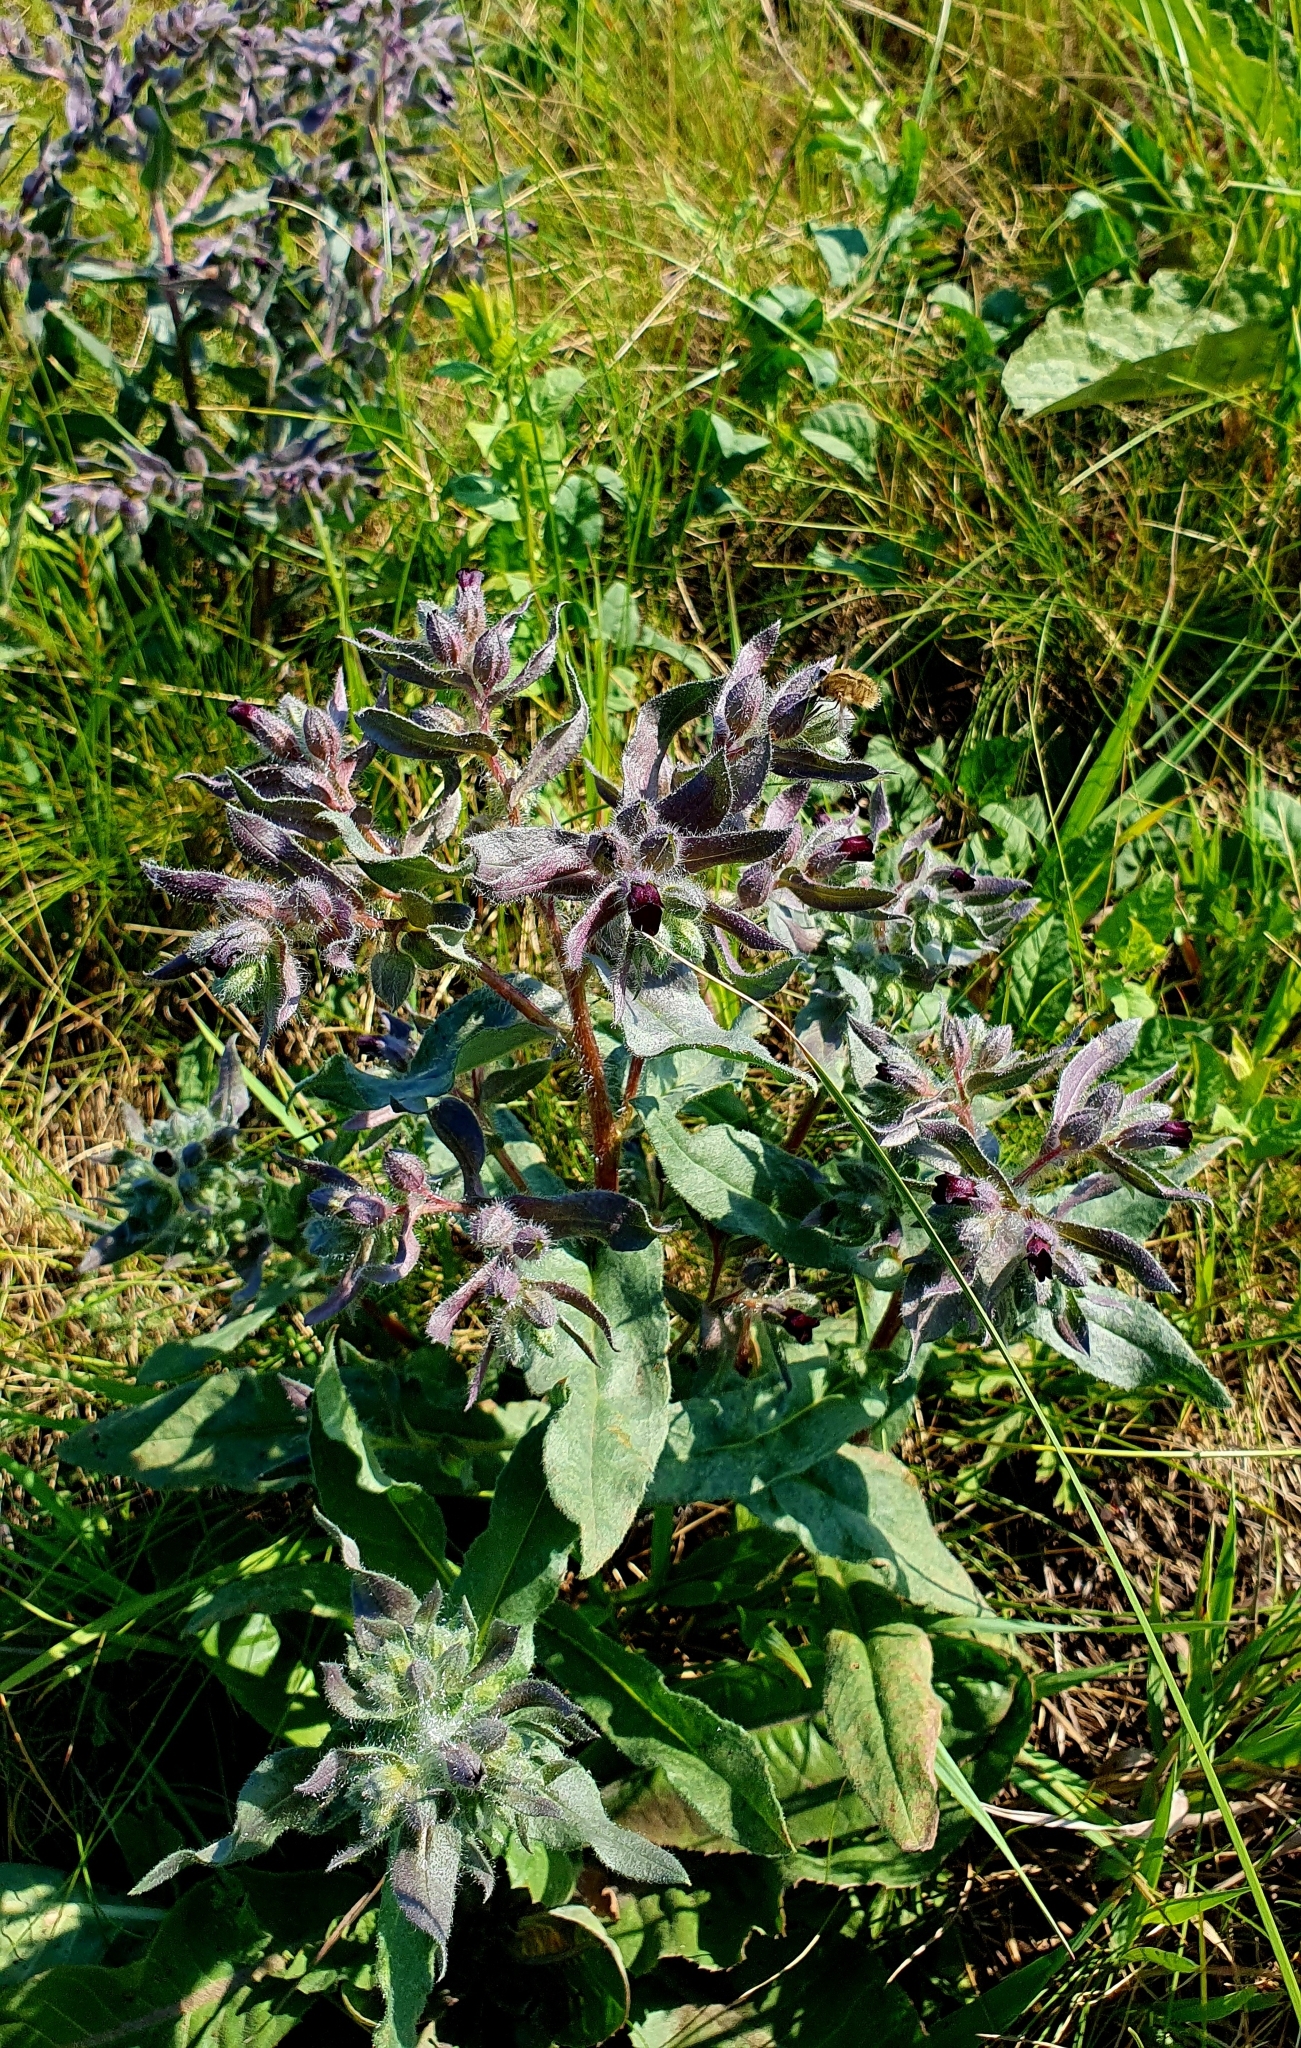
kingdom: Plantae
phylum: Tracheophyta
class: Magnoliopsida
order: Boraginales
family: Boraginaceae
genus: Nonea
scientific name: Nonea pulla
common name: Brown nonea
